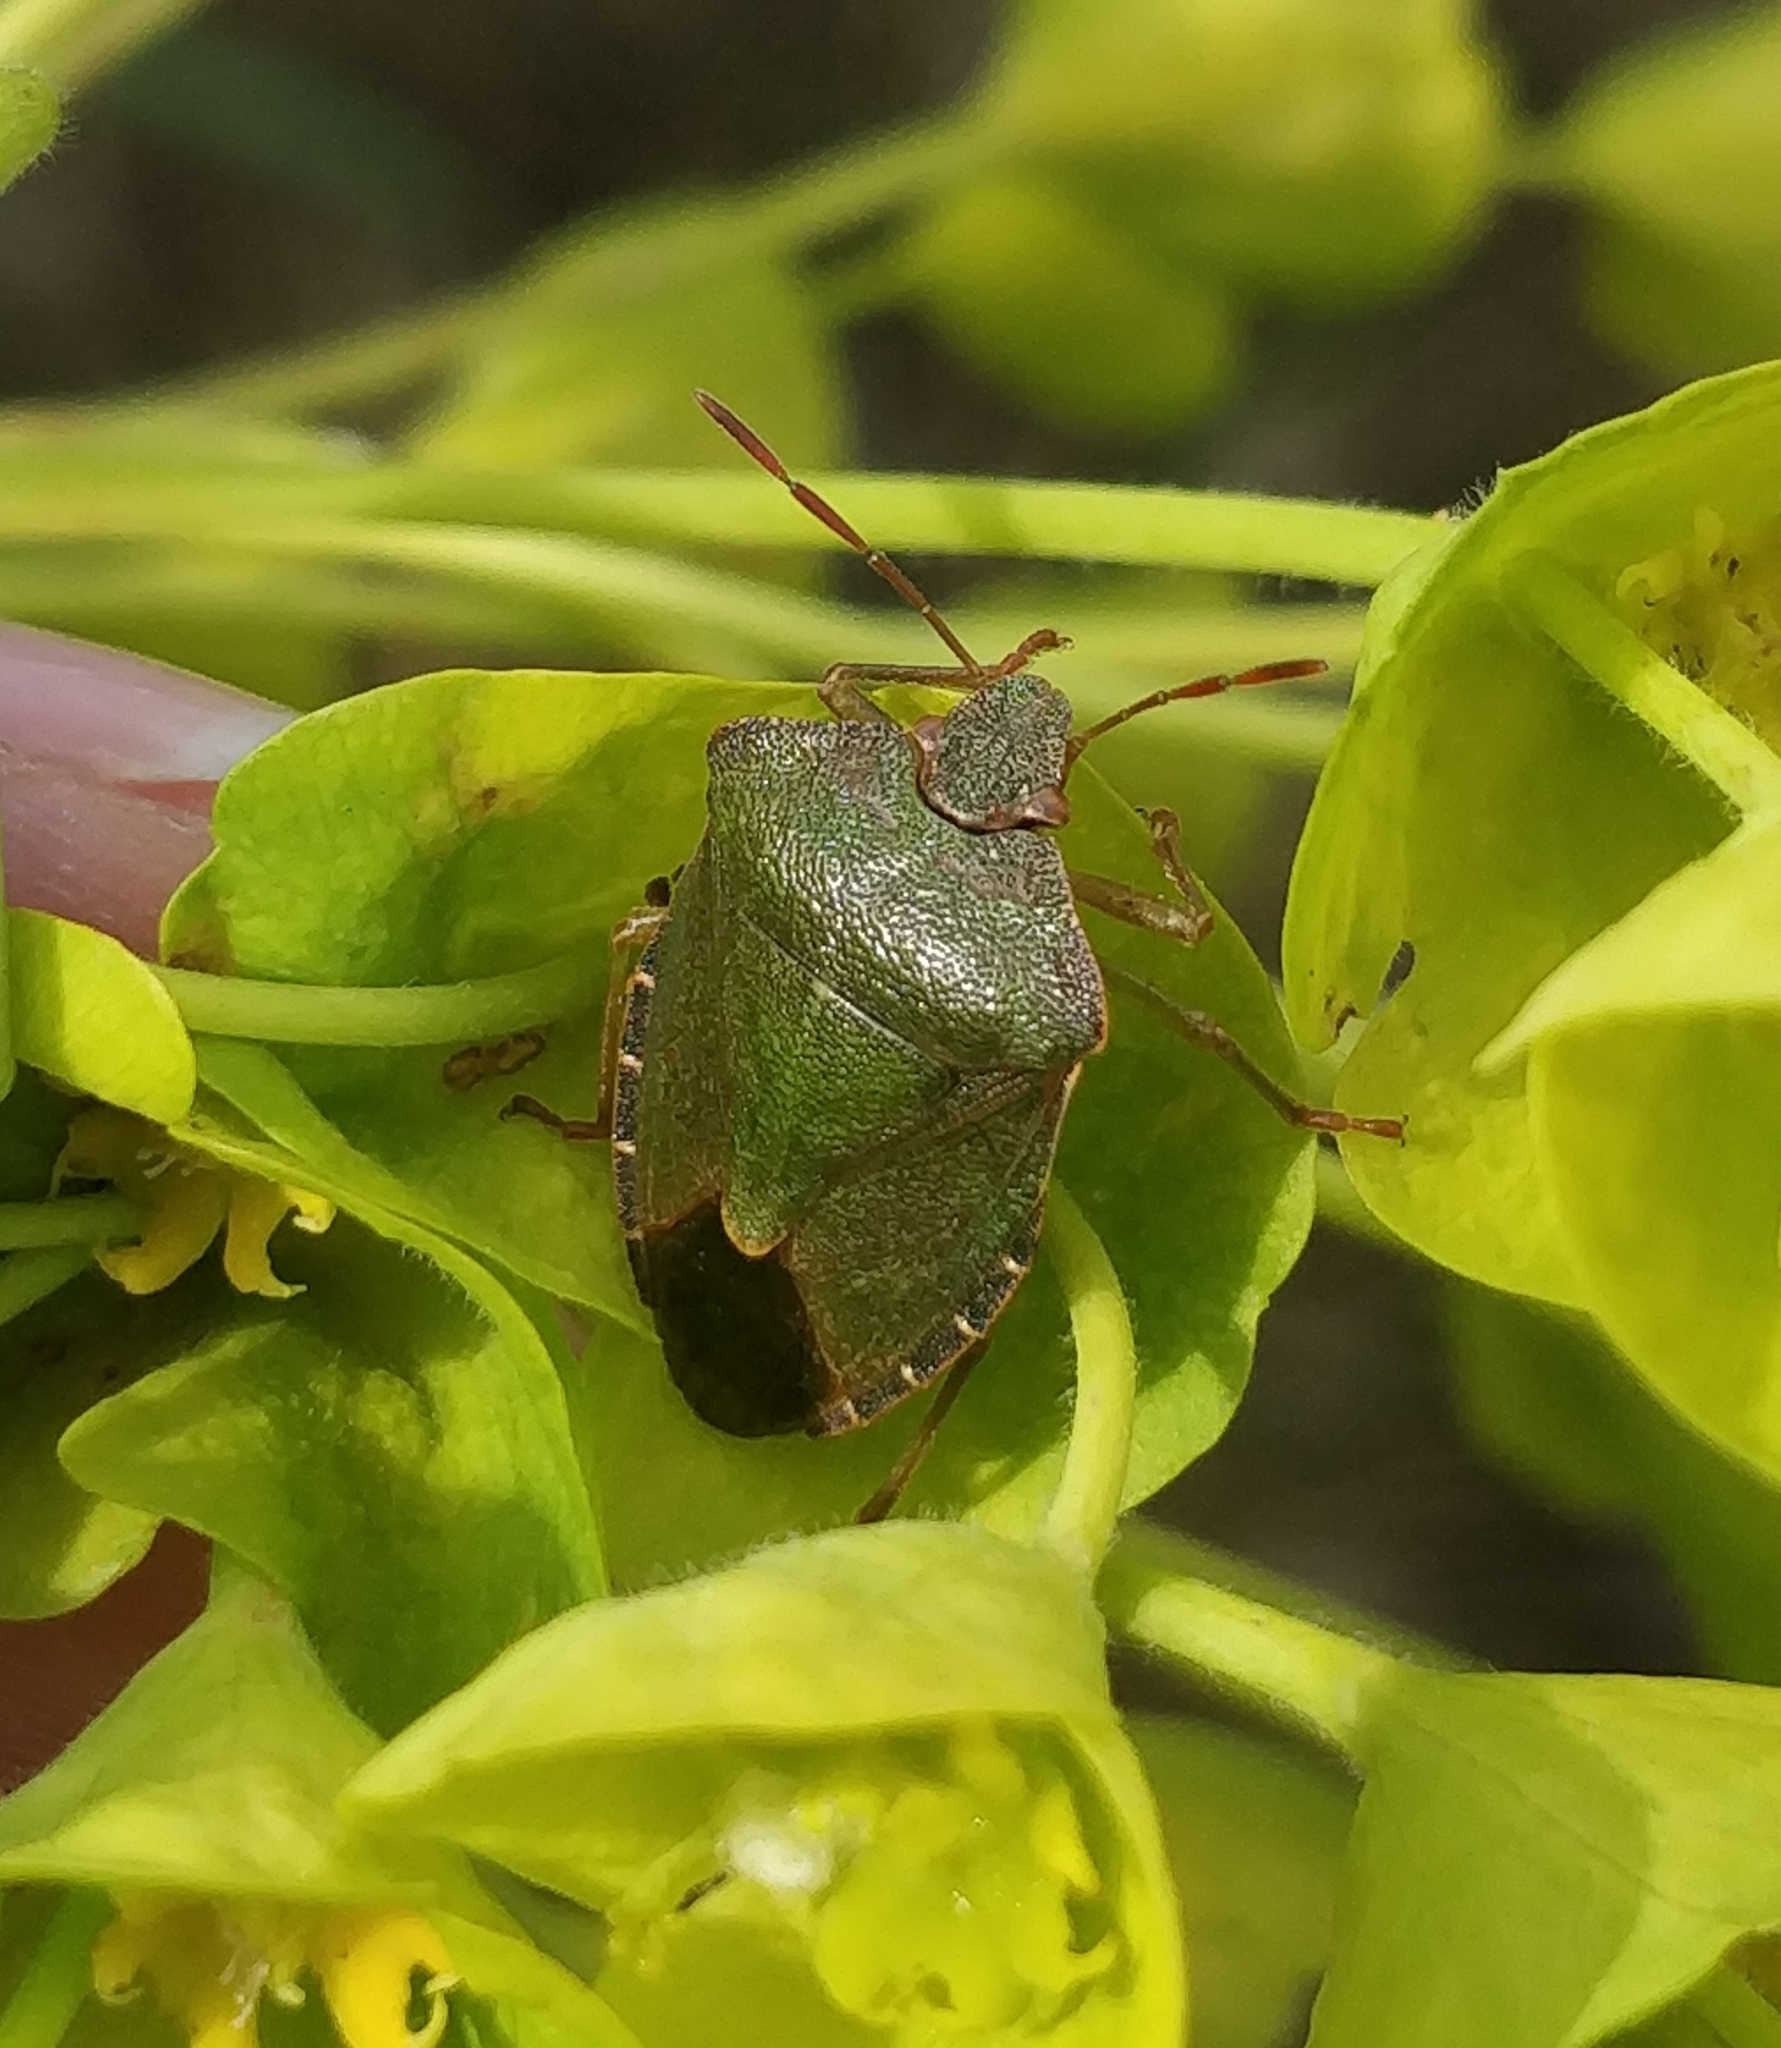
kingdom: Animalia
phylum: Arthropoda
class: Insecta
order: Hemiptera
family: Pentatomidae
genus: Palomena
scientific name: Palomena prasina
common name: Green shieldbug
